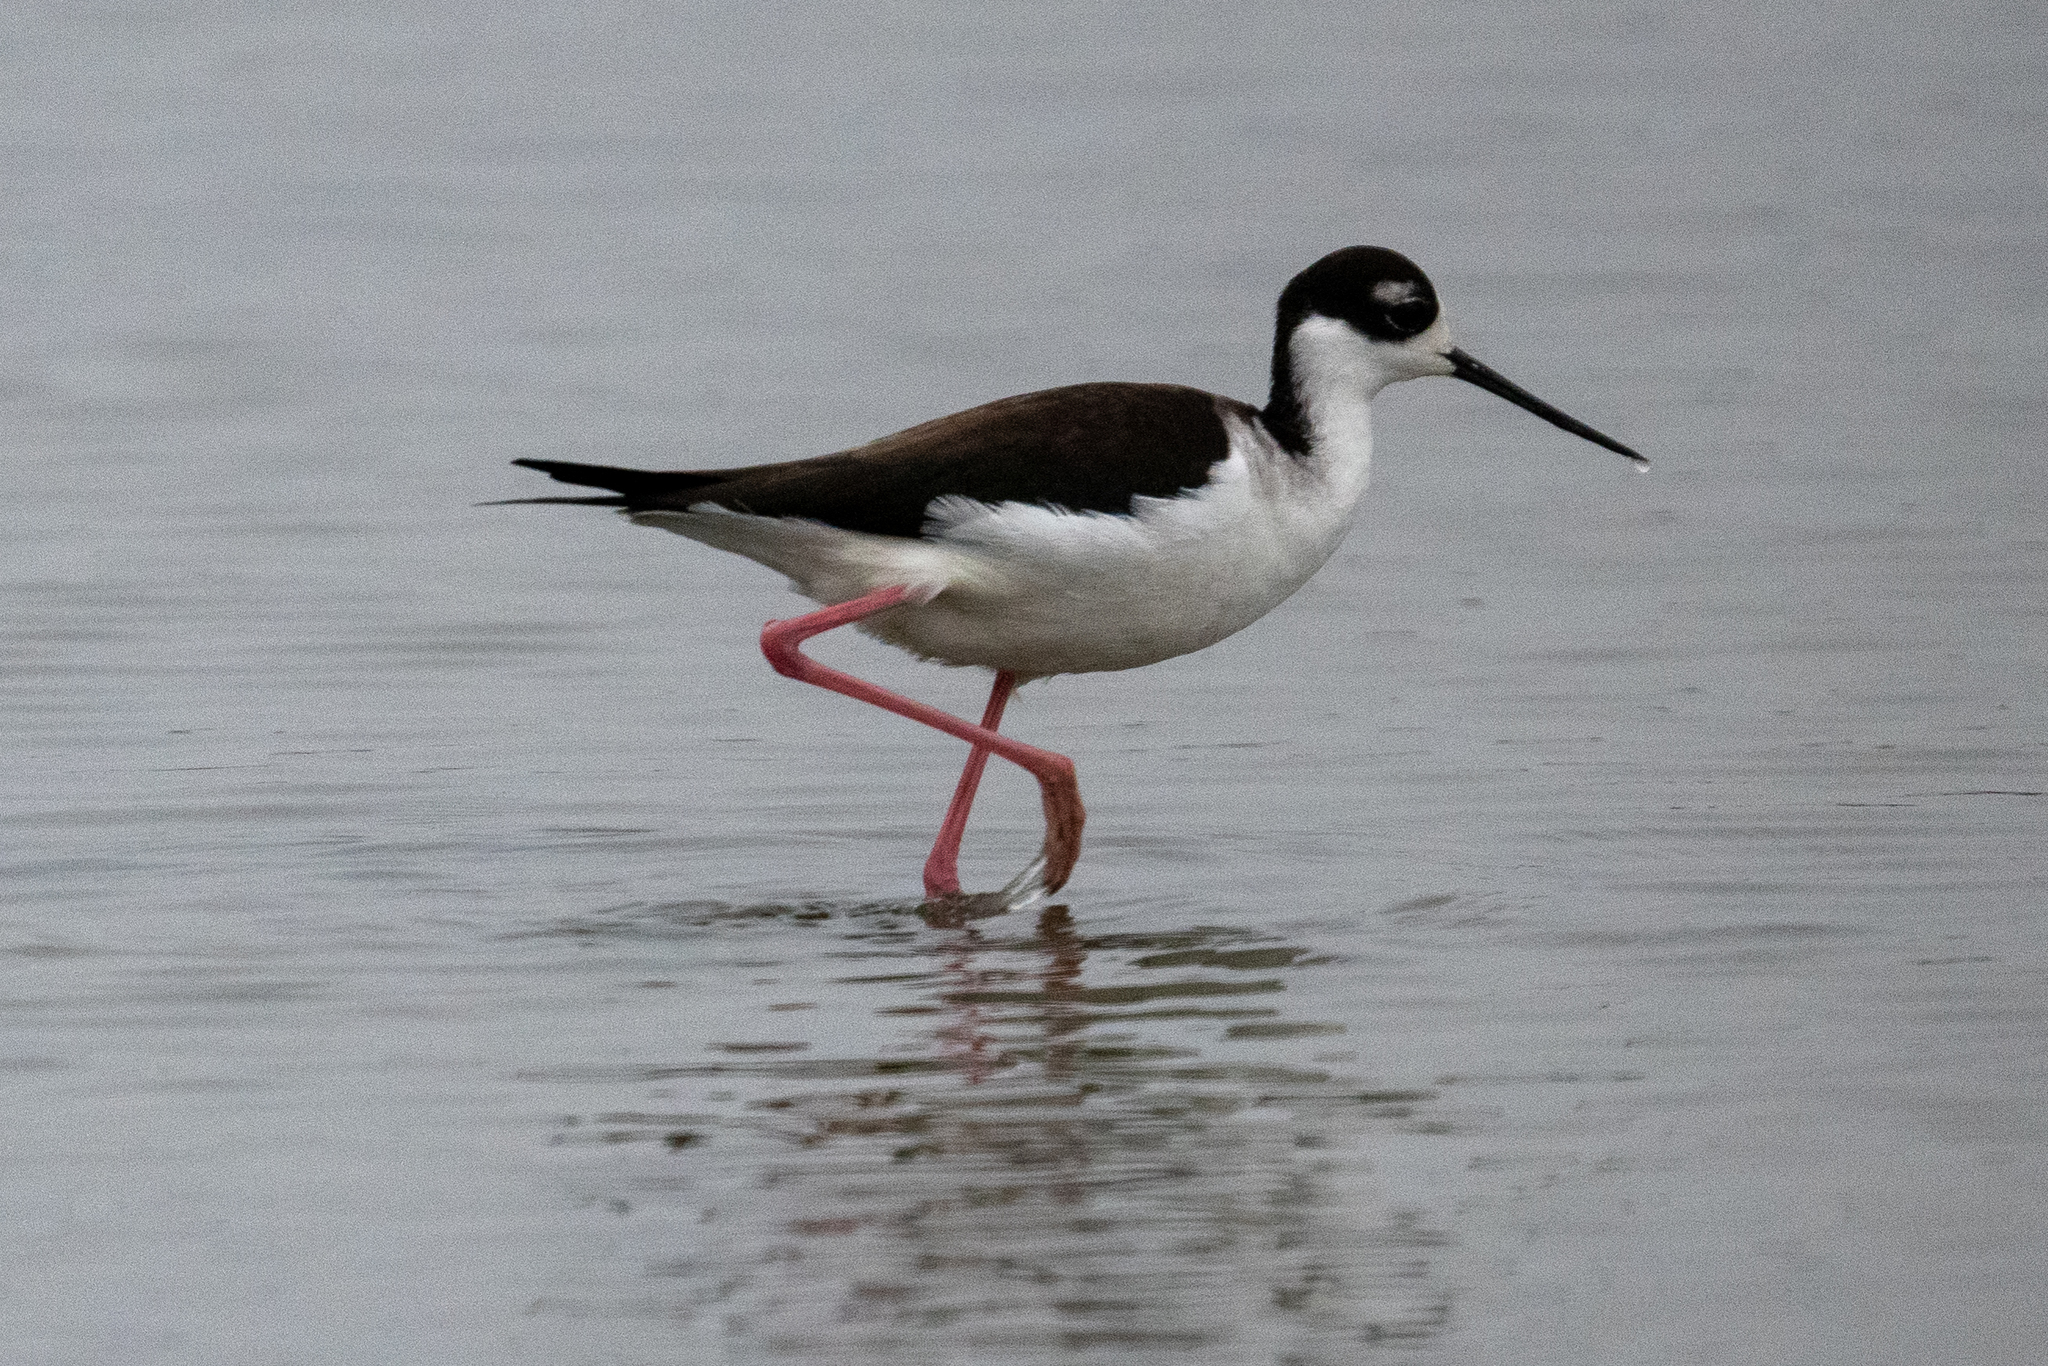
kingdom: Animalia
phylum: Chordata
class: Aves
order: Charadriiformes
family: Recurvirostridae
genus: Himantopus
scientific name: Himantopus mexicanus
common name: Black-necked stilt
